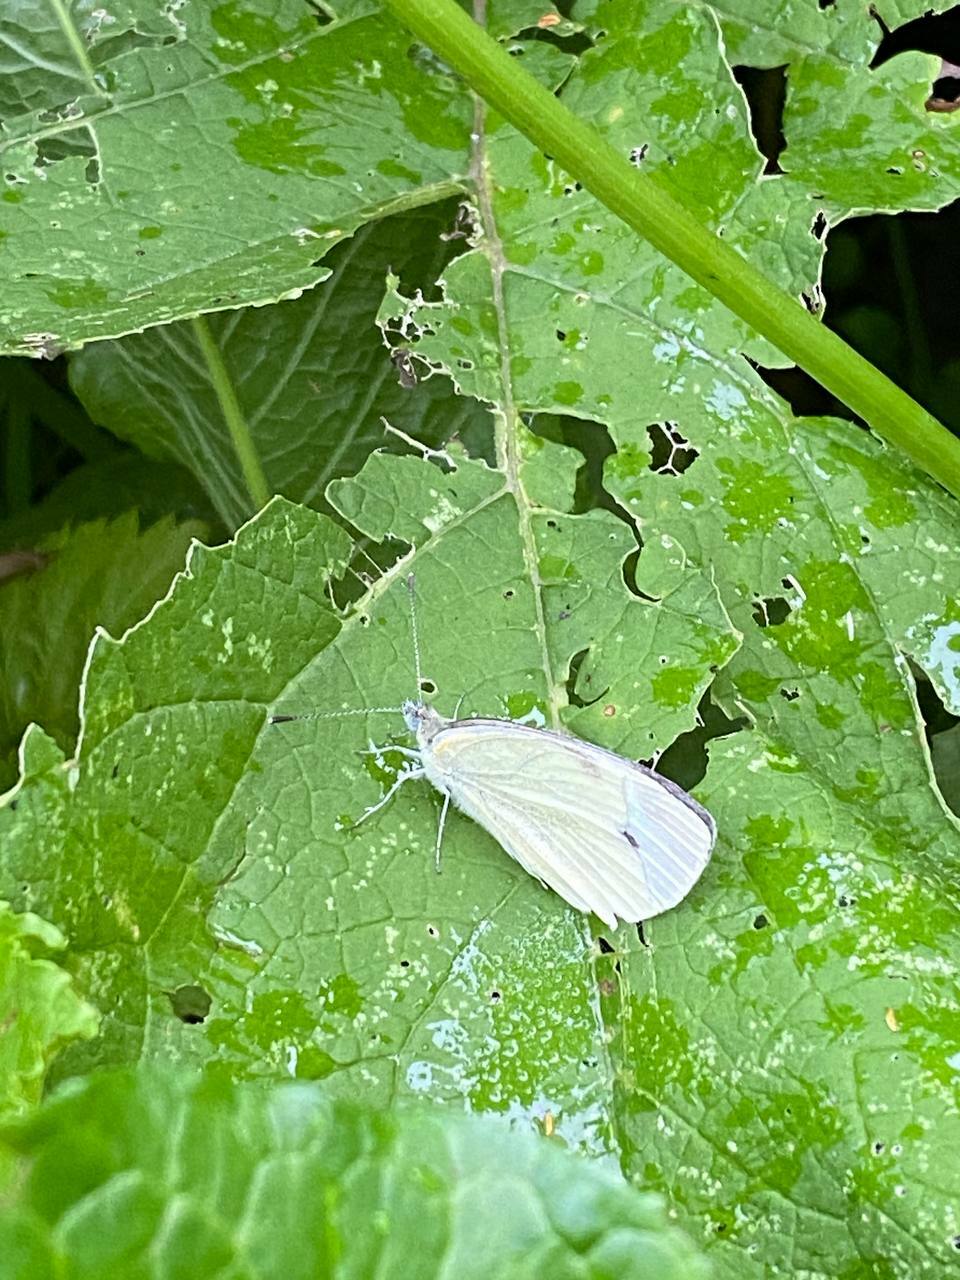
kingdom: Animalia
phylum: Arthropoda
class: Insecta
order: Lepidoptera
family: Pieridae
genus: Pieris
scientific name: Pieris napi
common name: Green-veined white
